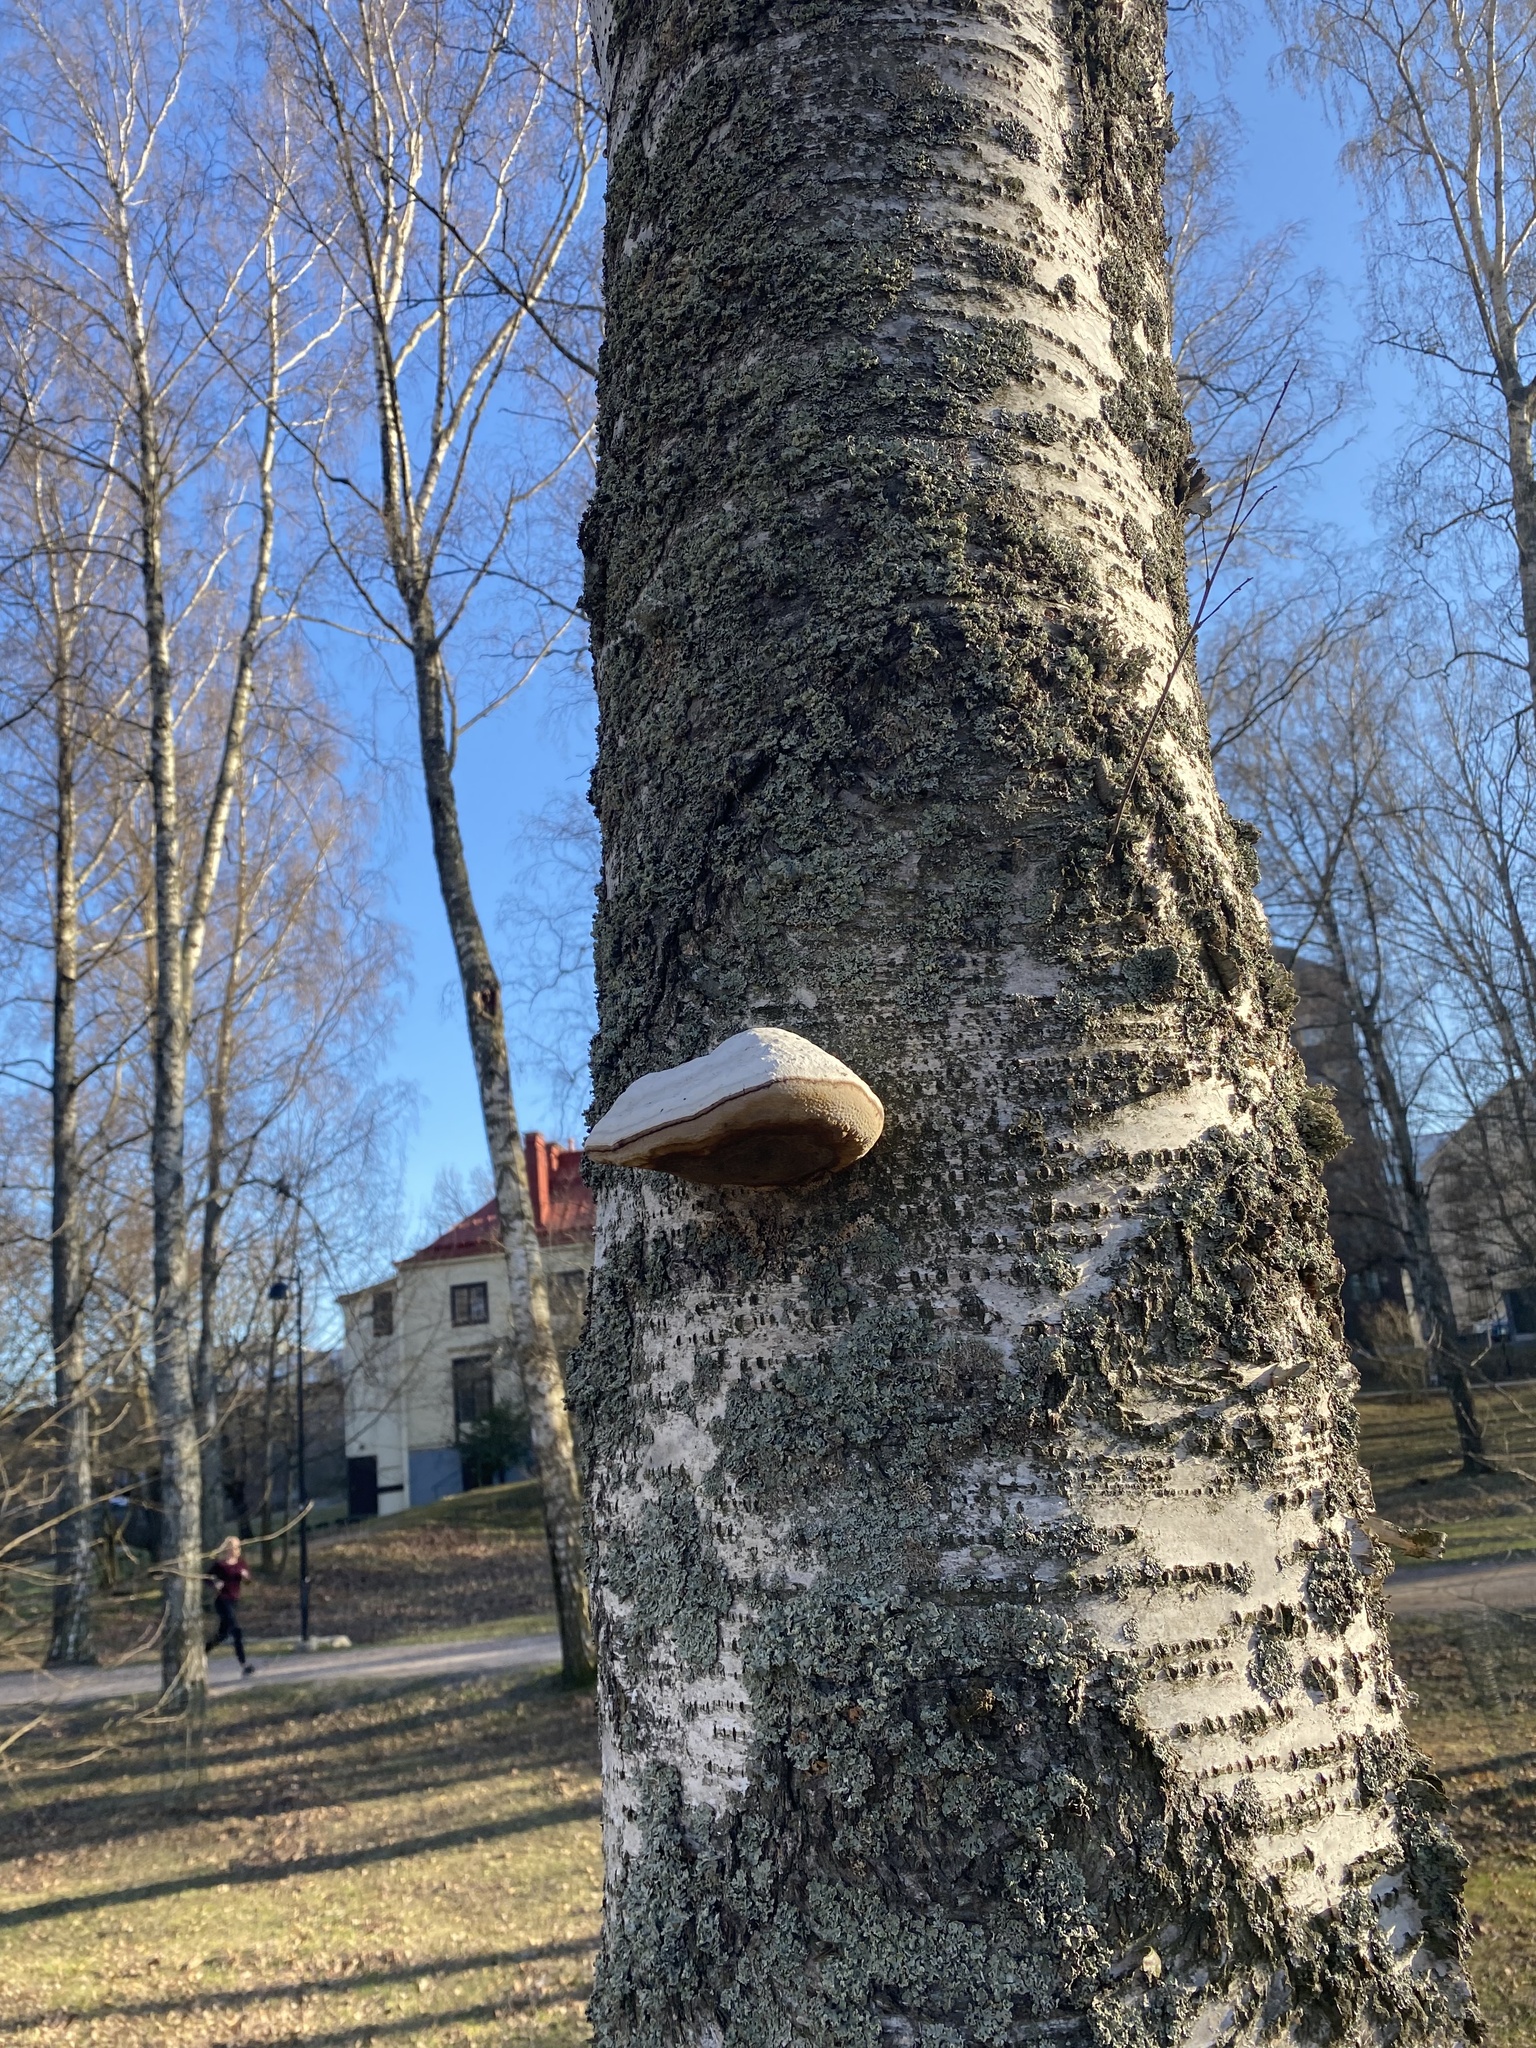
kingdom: Fungi
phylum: Basidiomycota
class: Agaricomycetes
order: Polyporales
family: Polyporaceae
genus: Fomes
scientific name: Fomes fomentarius
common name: Hoof fungus
